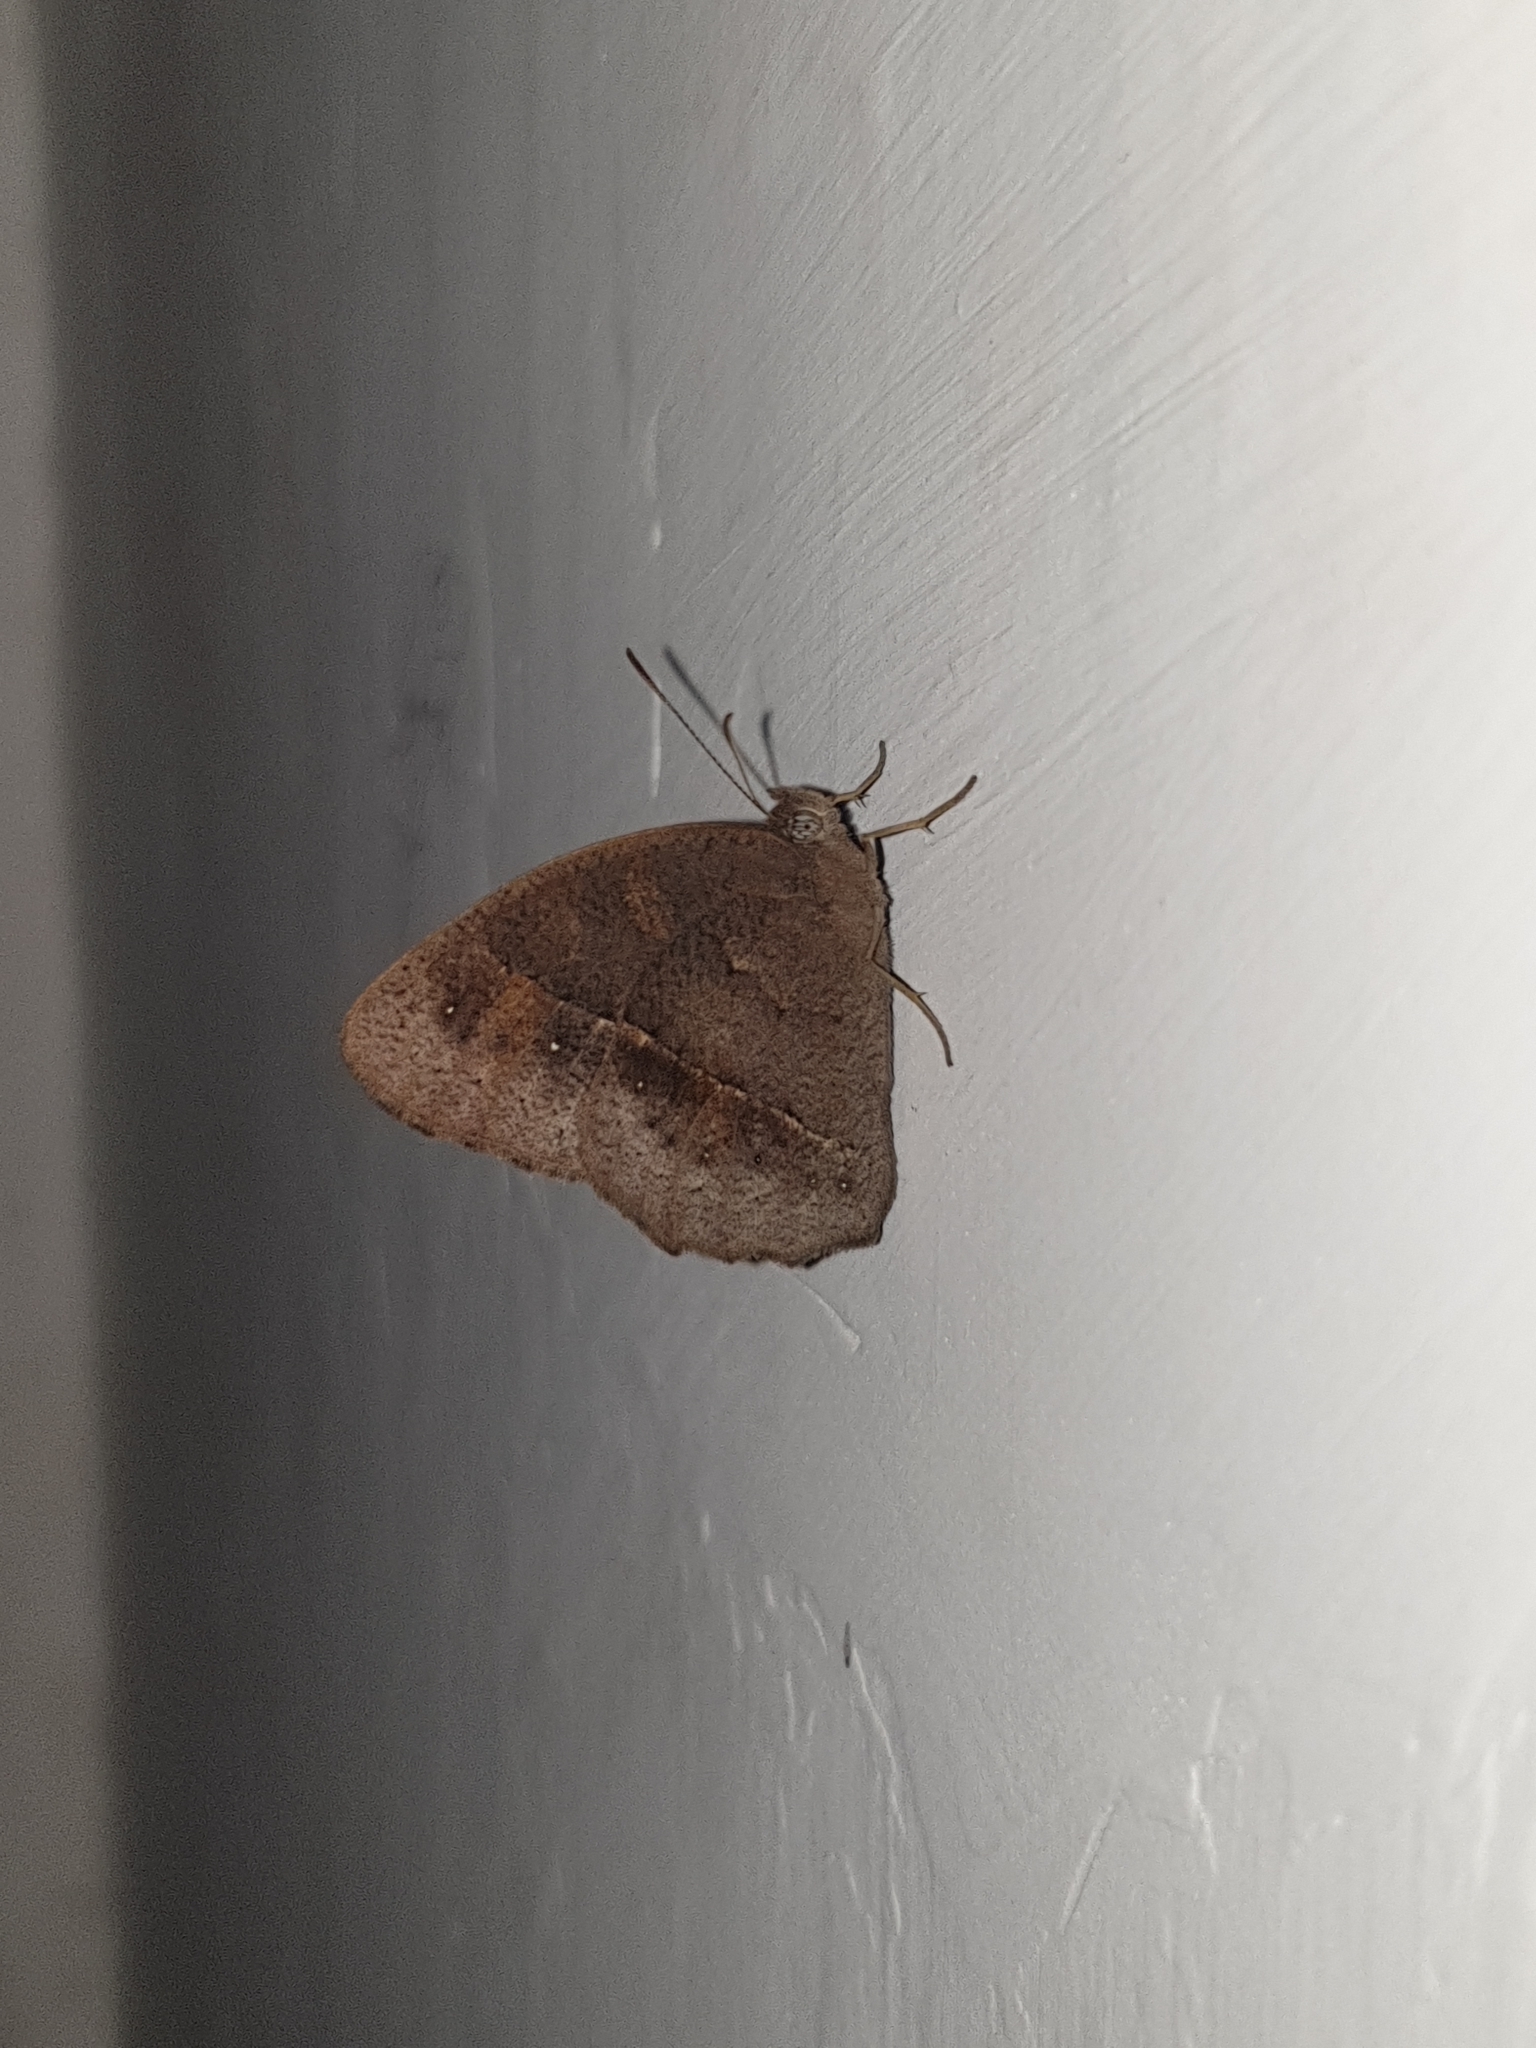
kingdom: Animalia
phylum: Arthropoda
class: Insecta
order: Lepidoptera
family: Nymphalidae
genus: Mycalesis
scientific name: Mycalesis mineus
